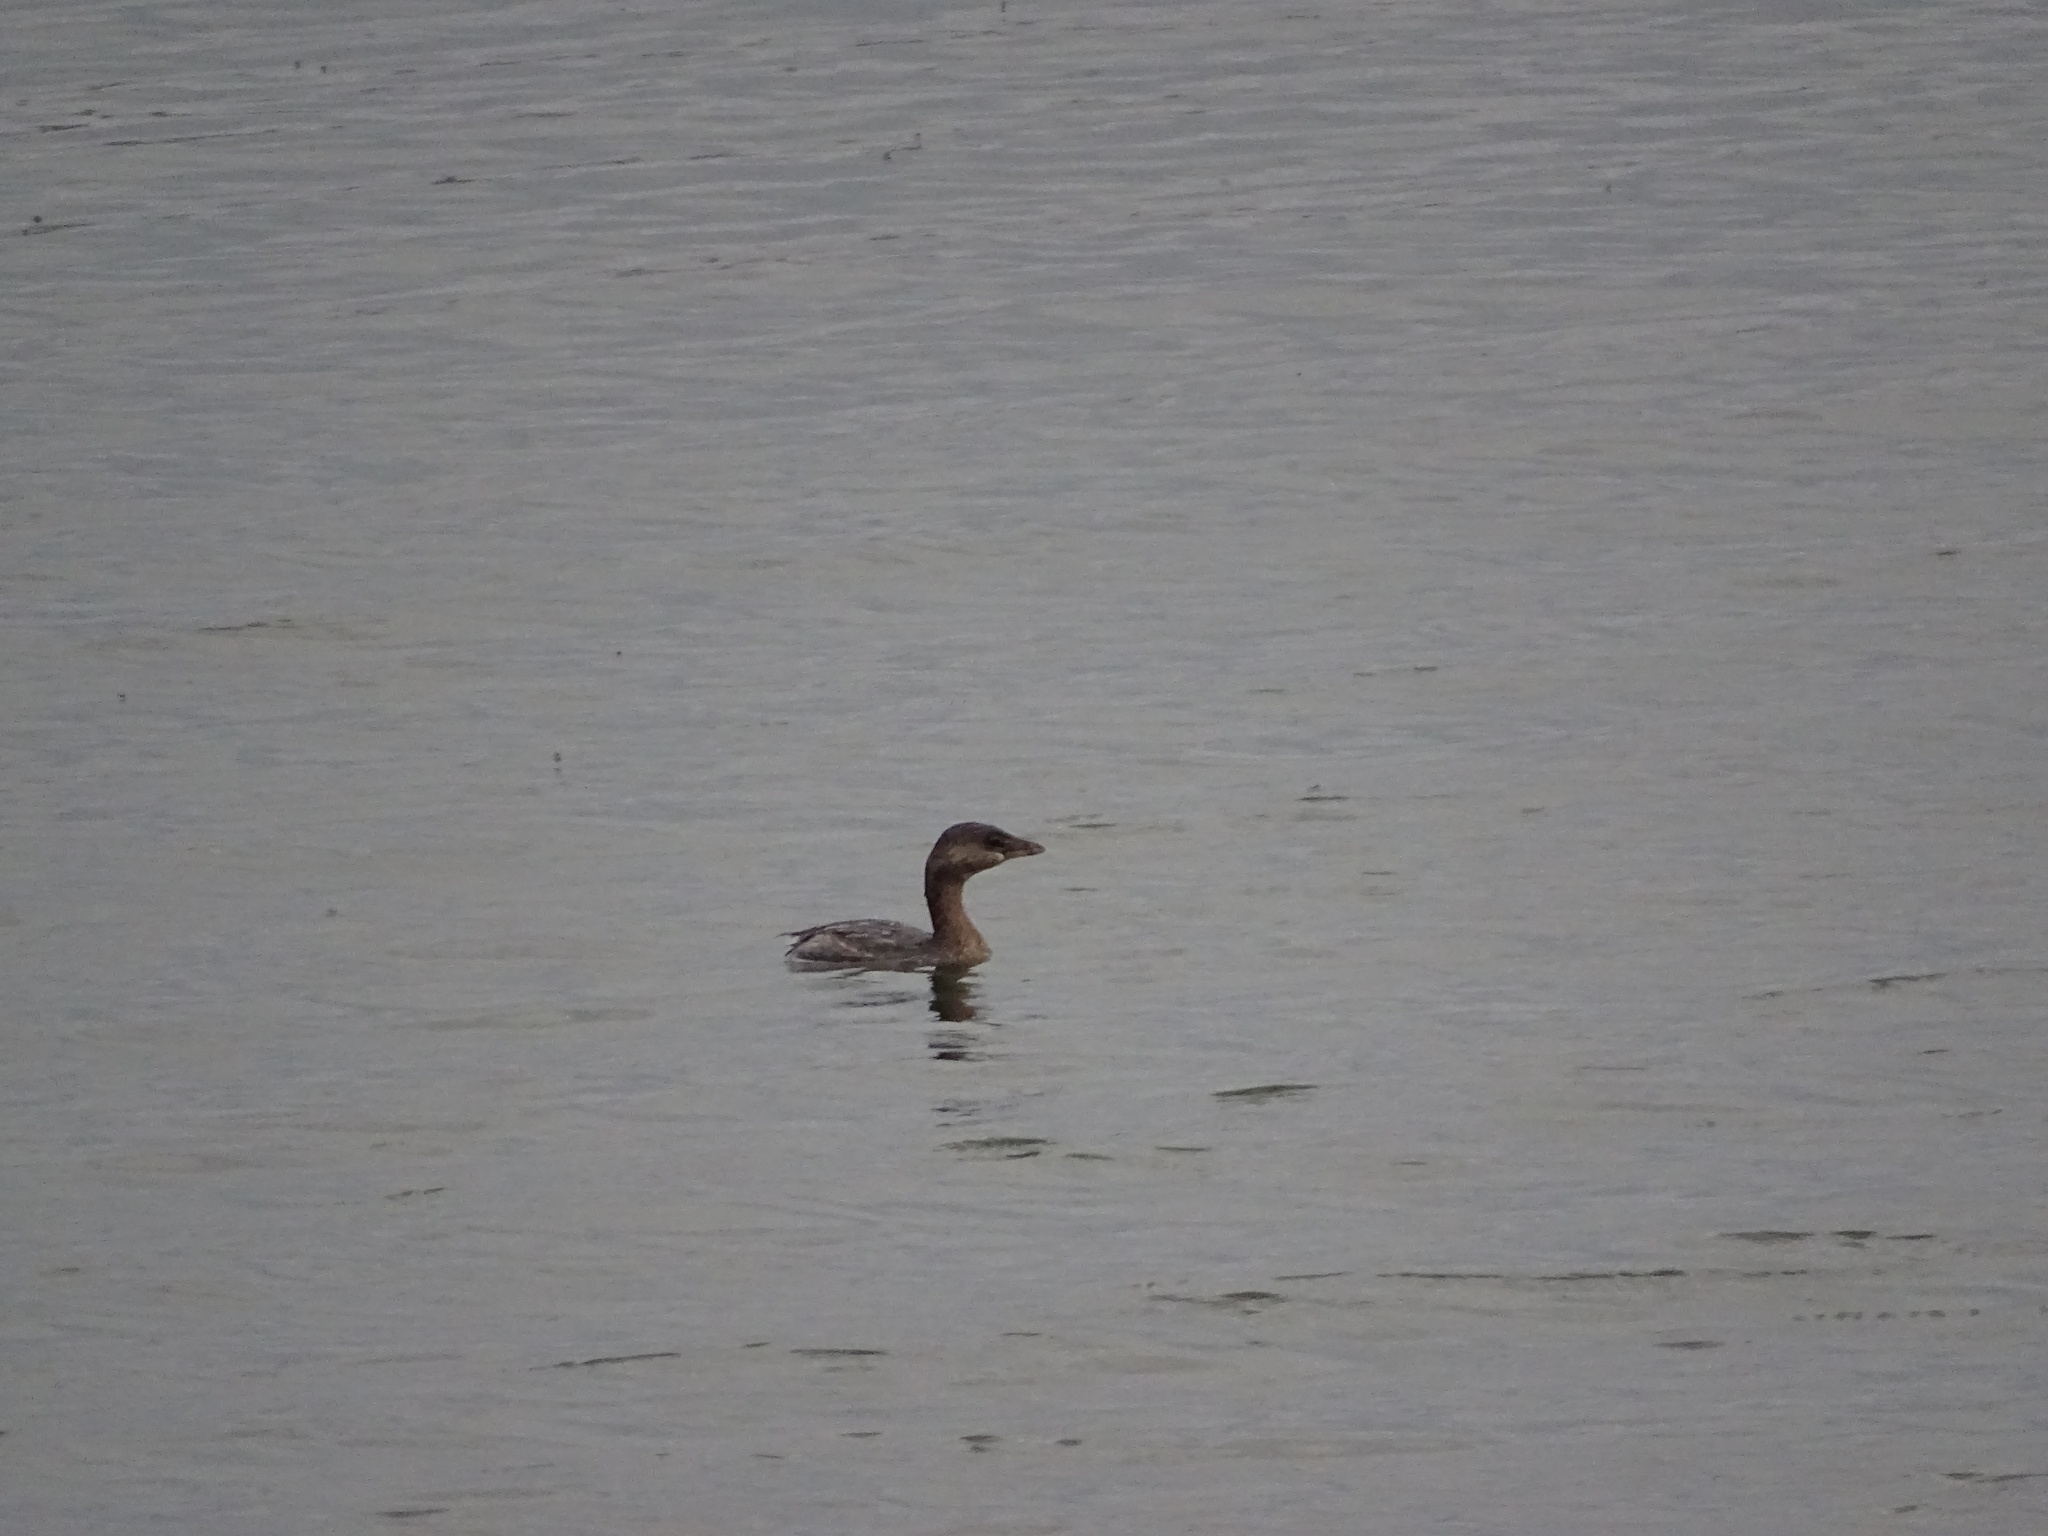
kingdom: Animalia
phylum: Chordata
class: Aves
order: Podicipediformes
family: Podicipedidae
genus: Podilymbus
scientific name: Podilymbus podiceps
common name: Pied-billed grebe
